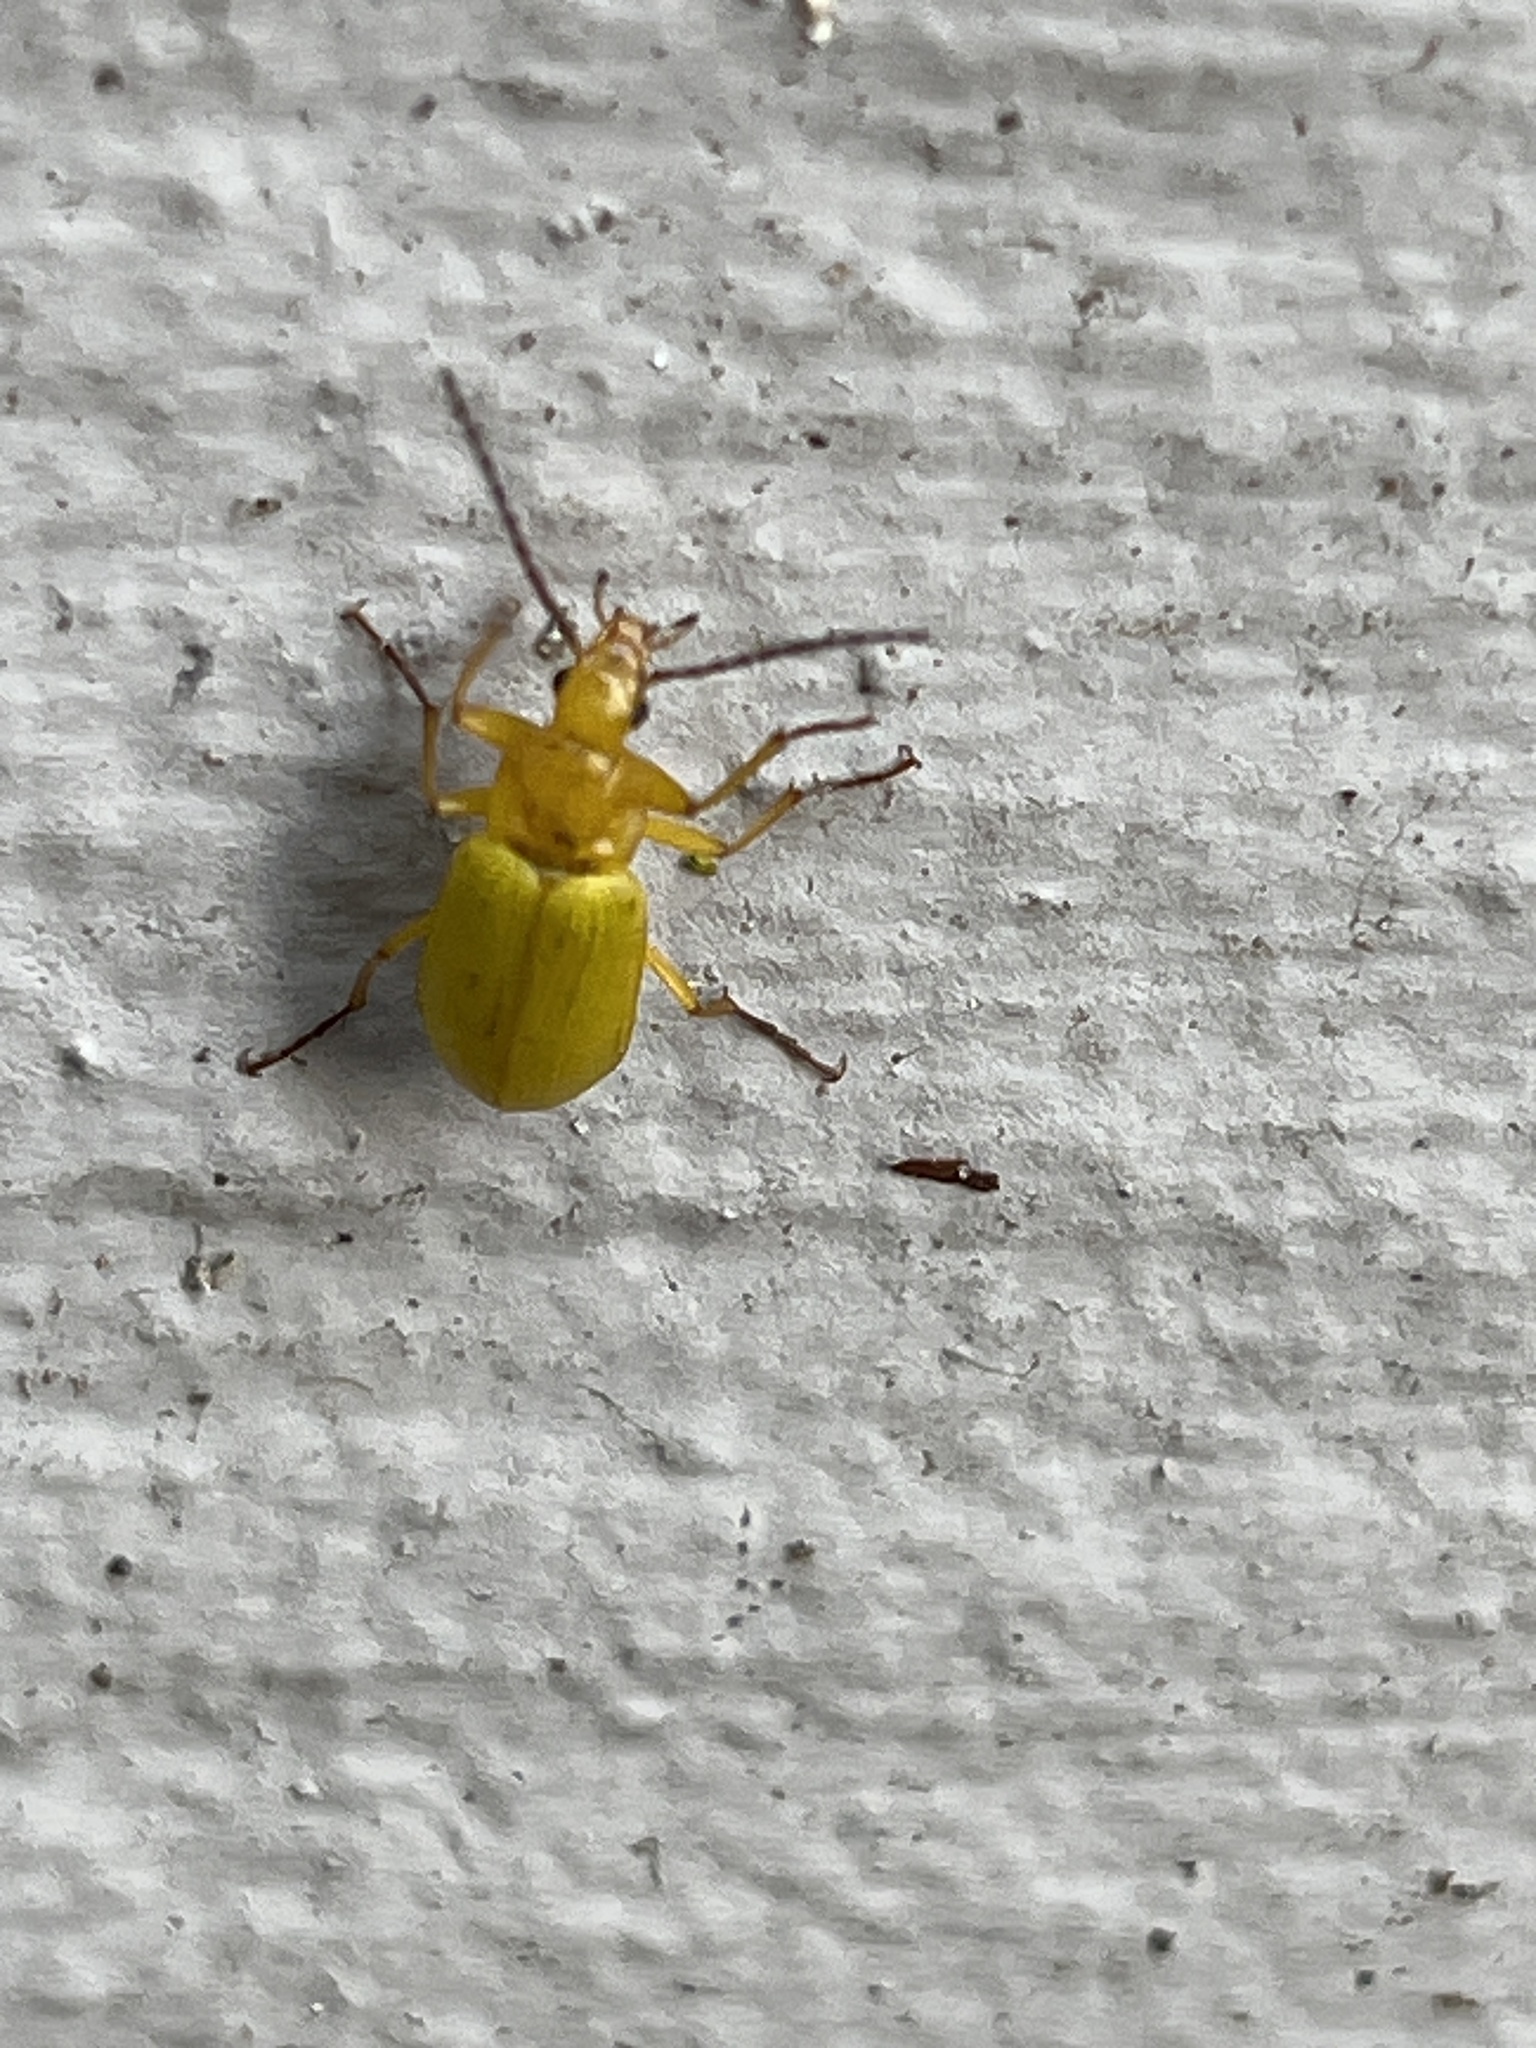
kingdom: Animalia
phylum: Arthropoda
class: Insecta
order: Coleoptera
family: Tenebrionidae
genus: Cteniopus
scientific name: Cteniopus sulphureus
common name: Sulphur beetle
